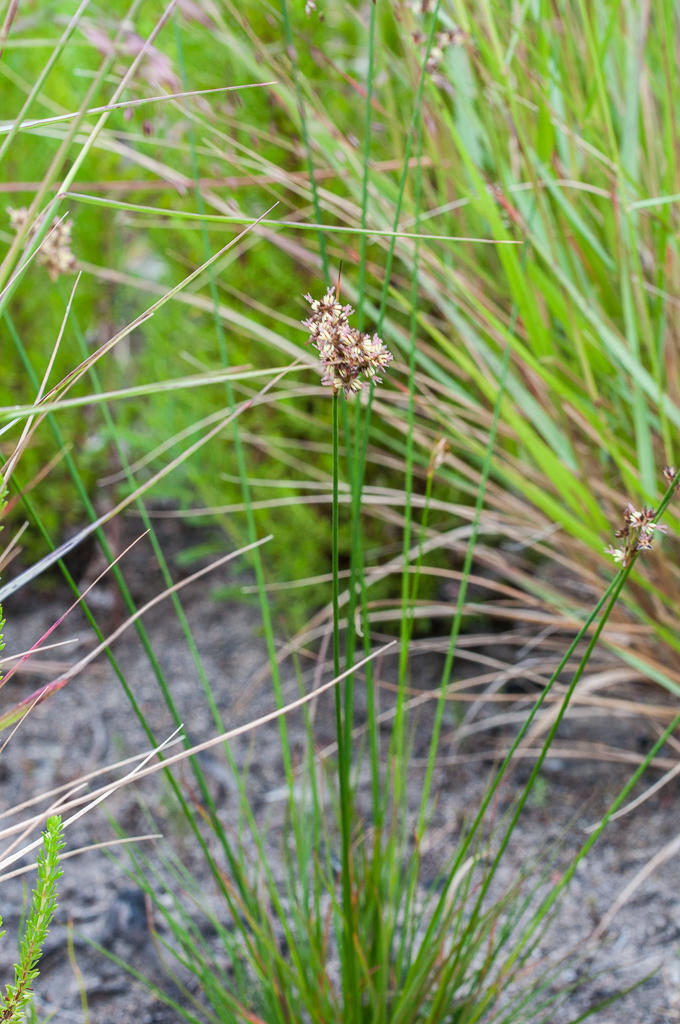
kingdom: Plantae
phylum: Tracheophyta
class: Liliopsida
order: Poales
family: Juncaceae
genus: Juncus
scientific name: Juncus oxycarpus
